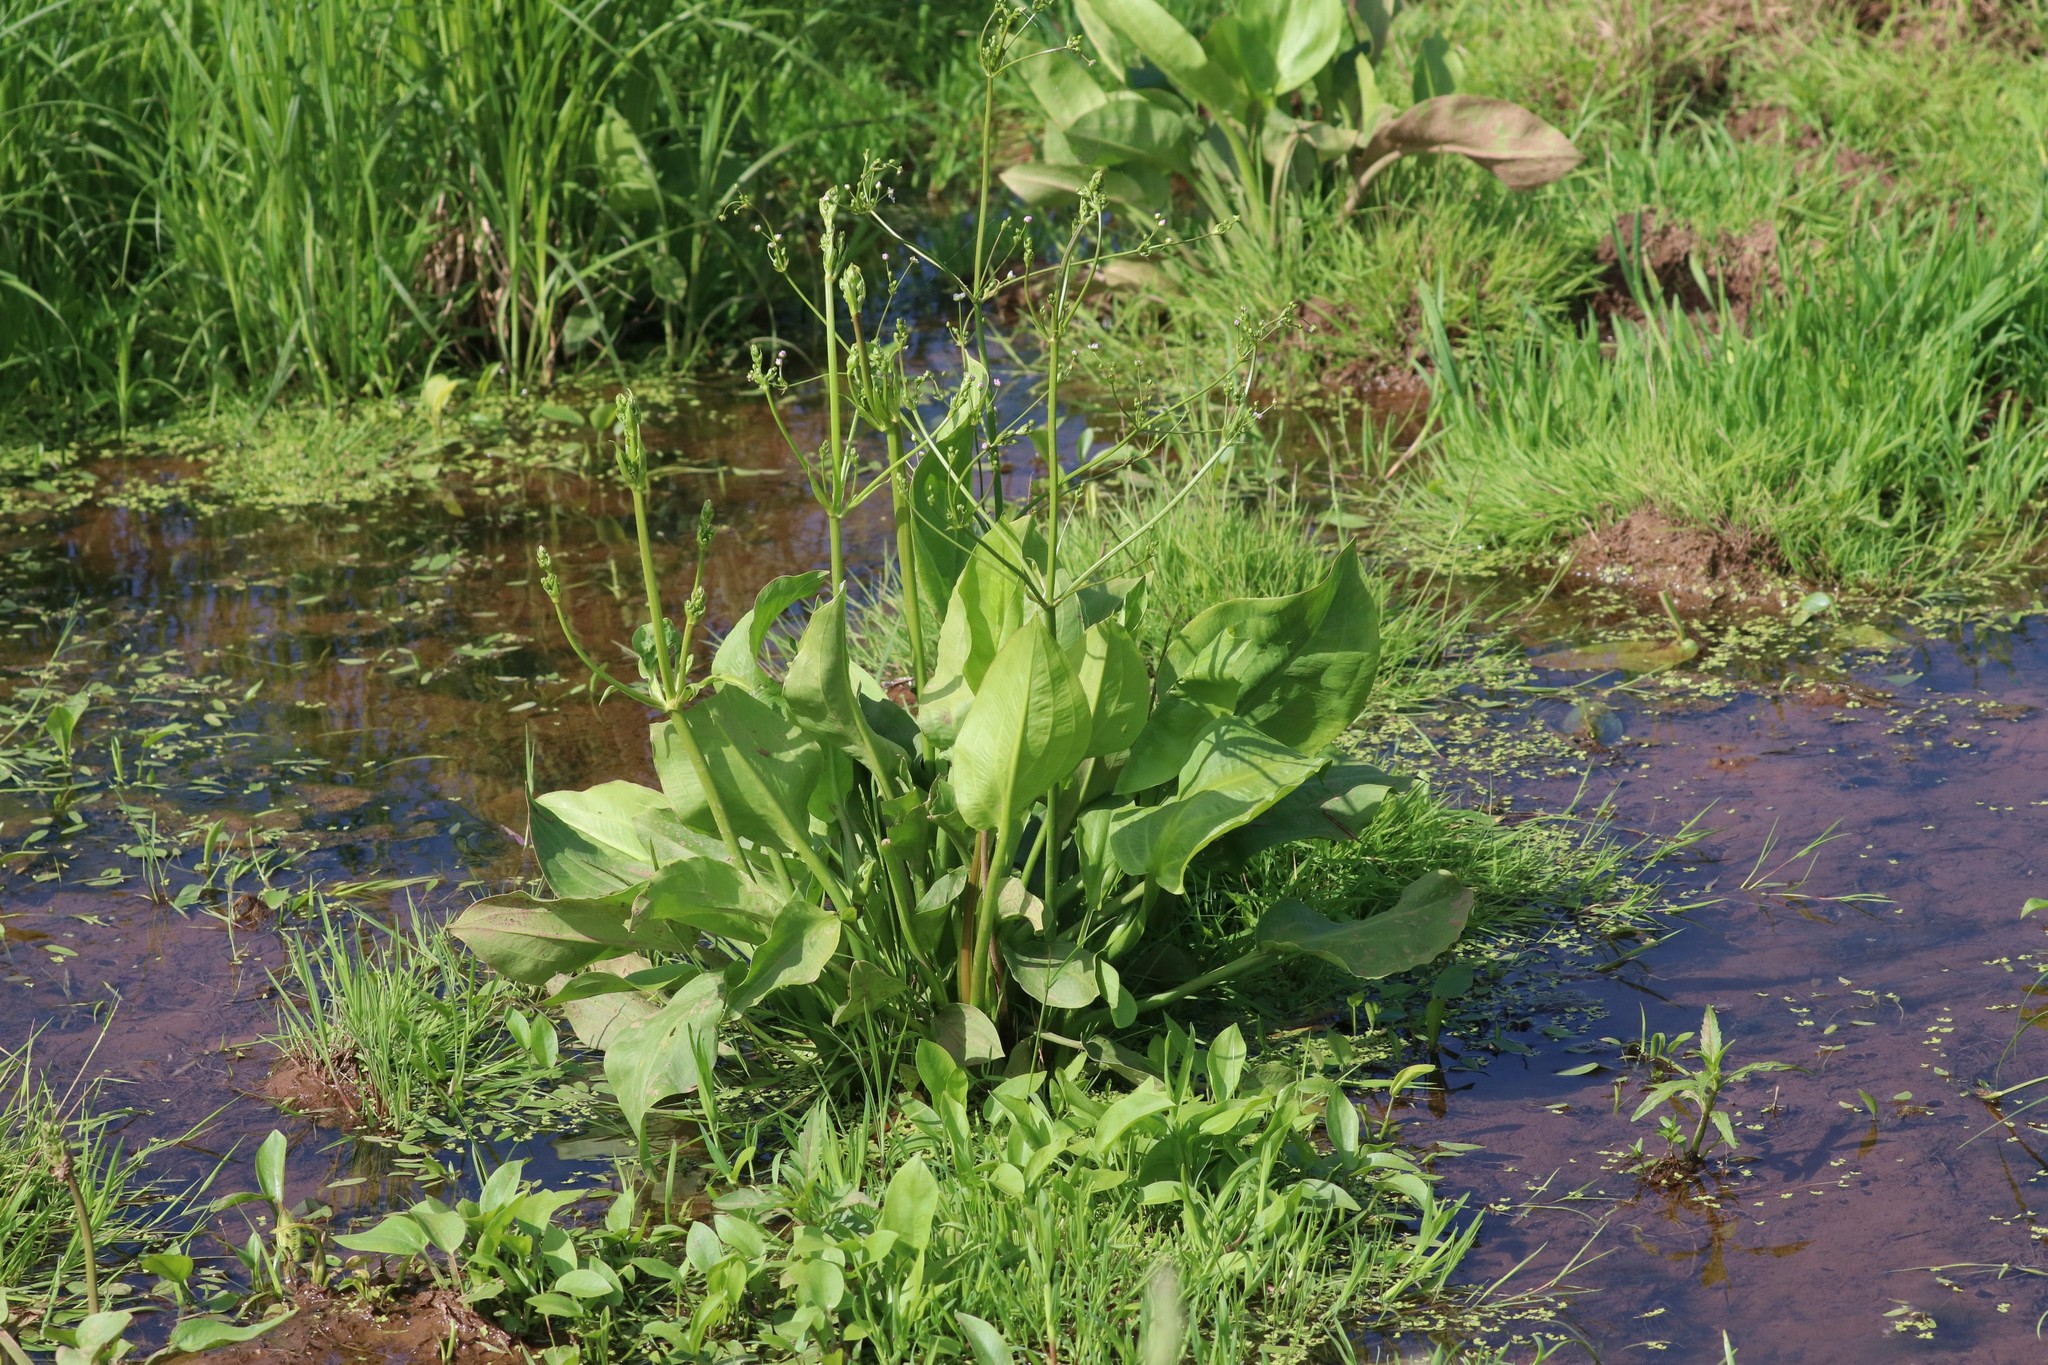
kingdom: Plantae
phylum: Tracheophyta
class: Liliopsida
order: Alismatales
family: Alismataceae
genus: Alisma
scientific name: Alisma plantago-aquatica
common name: Water-plantain
